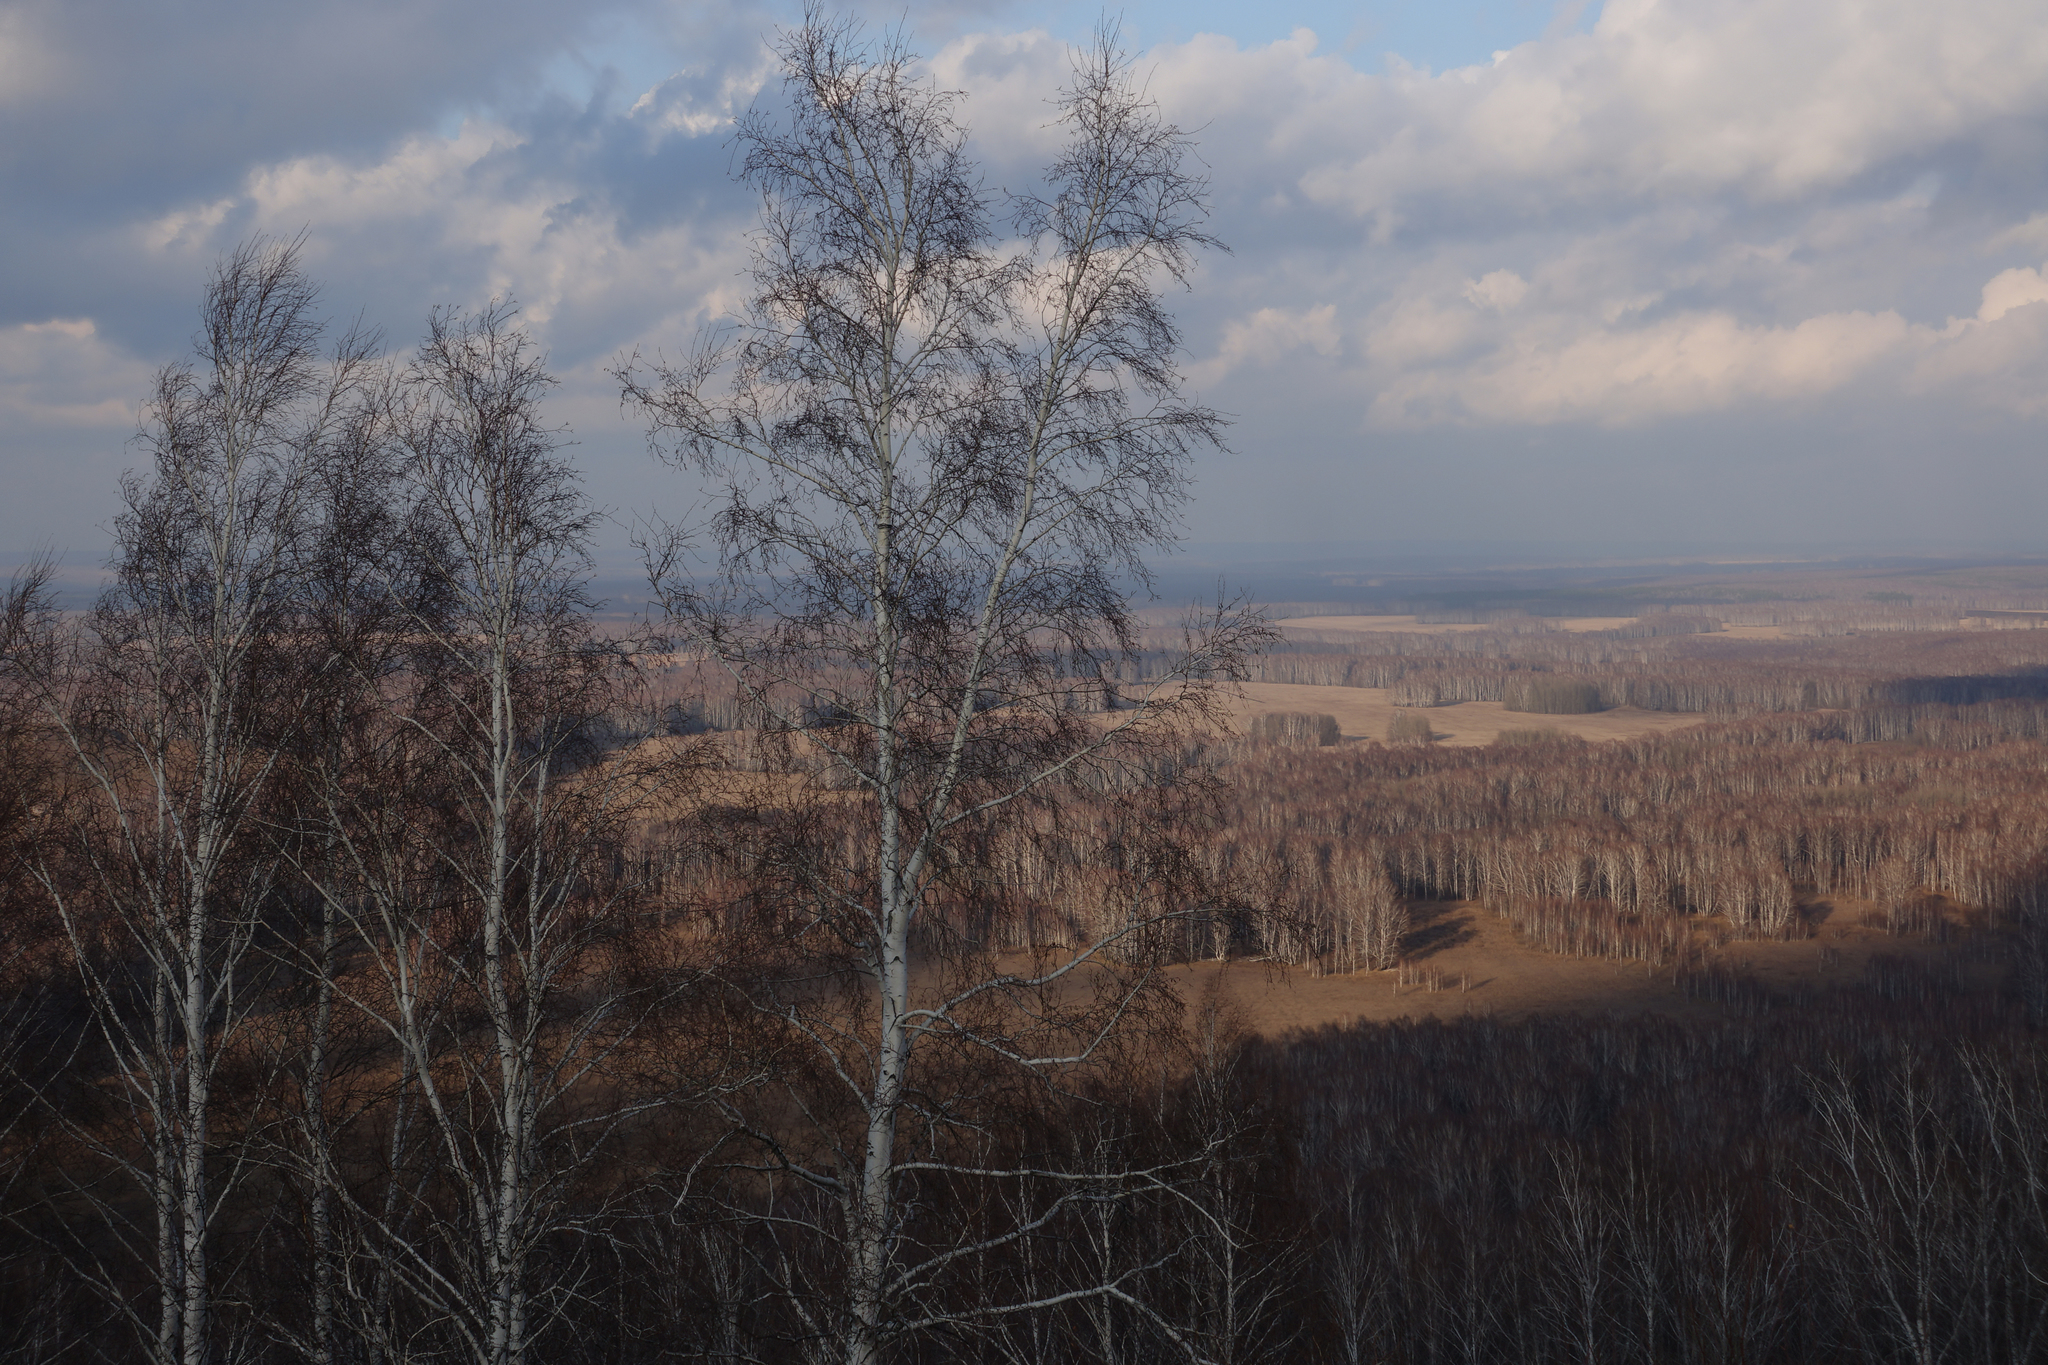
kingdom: Plantae
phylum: Tracheophyta
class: Magnoliopsida
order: Fagales
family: Betulaceae
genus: Betula
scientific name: Betula pendula
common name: Silver birch
